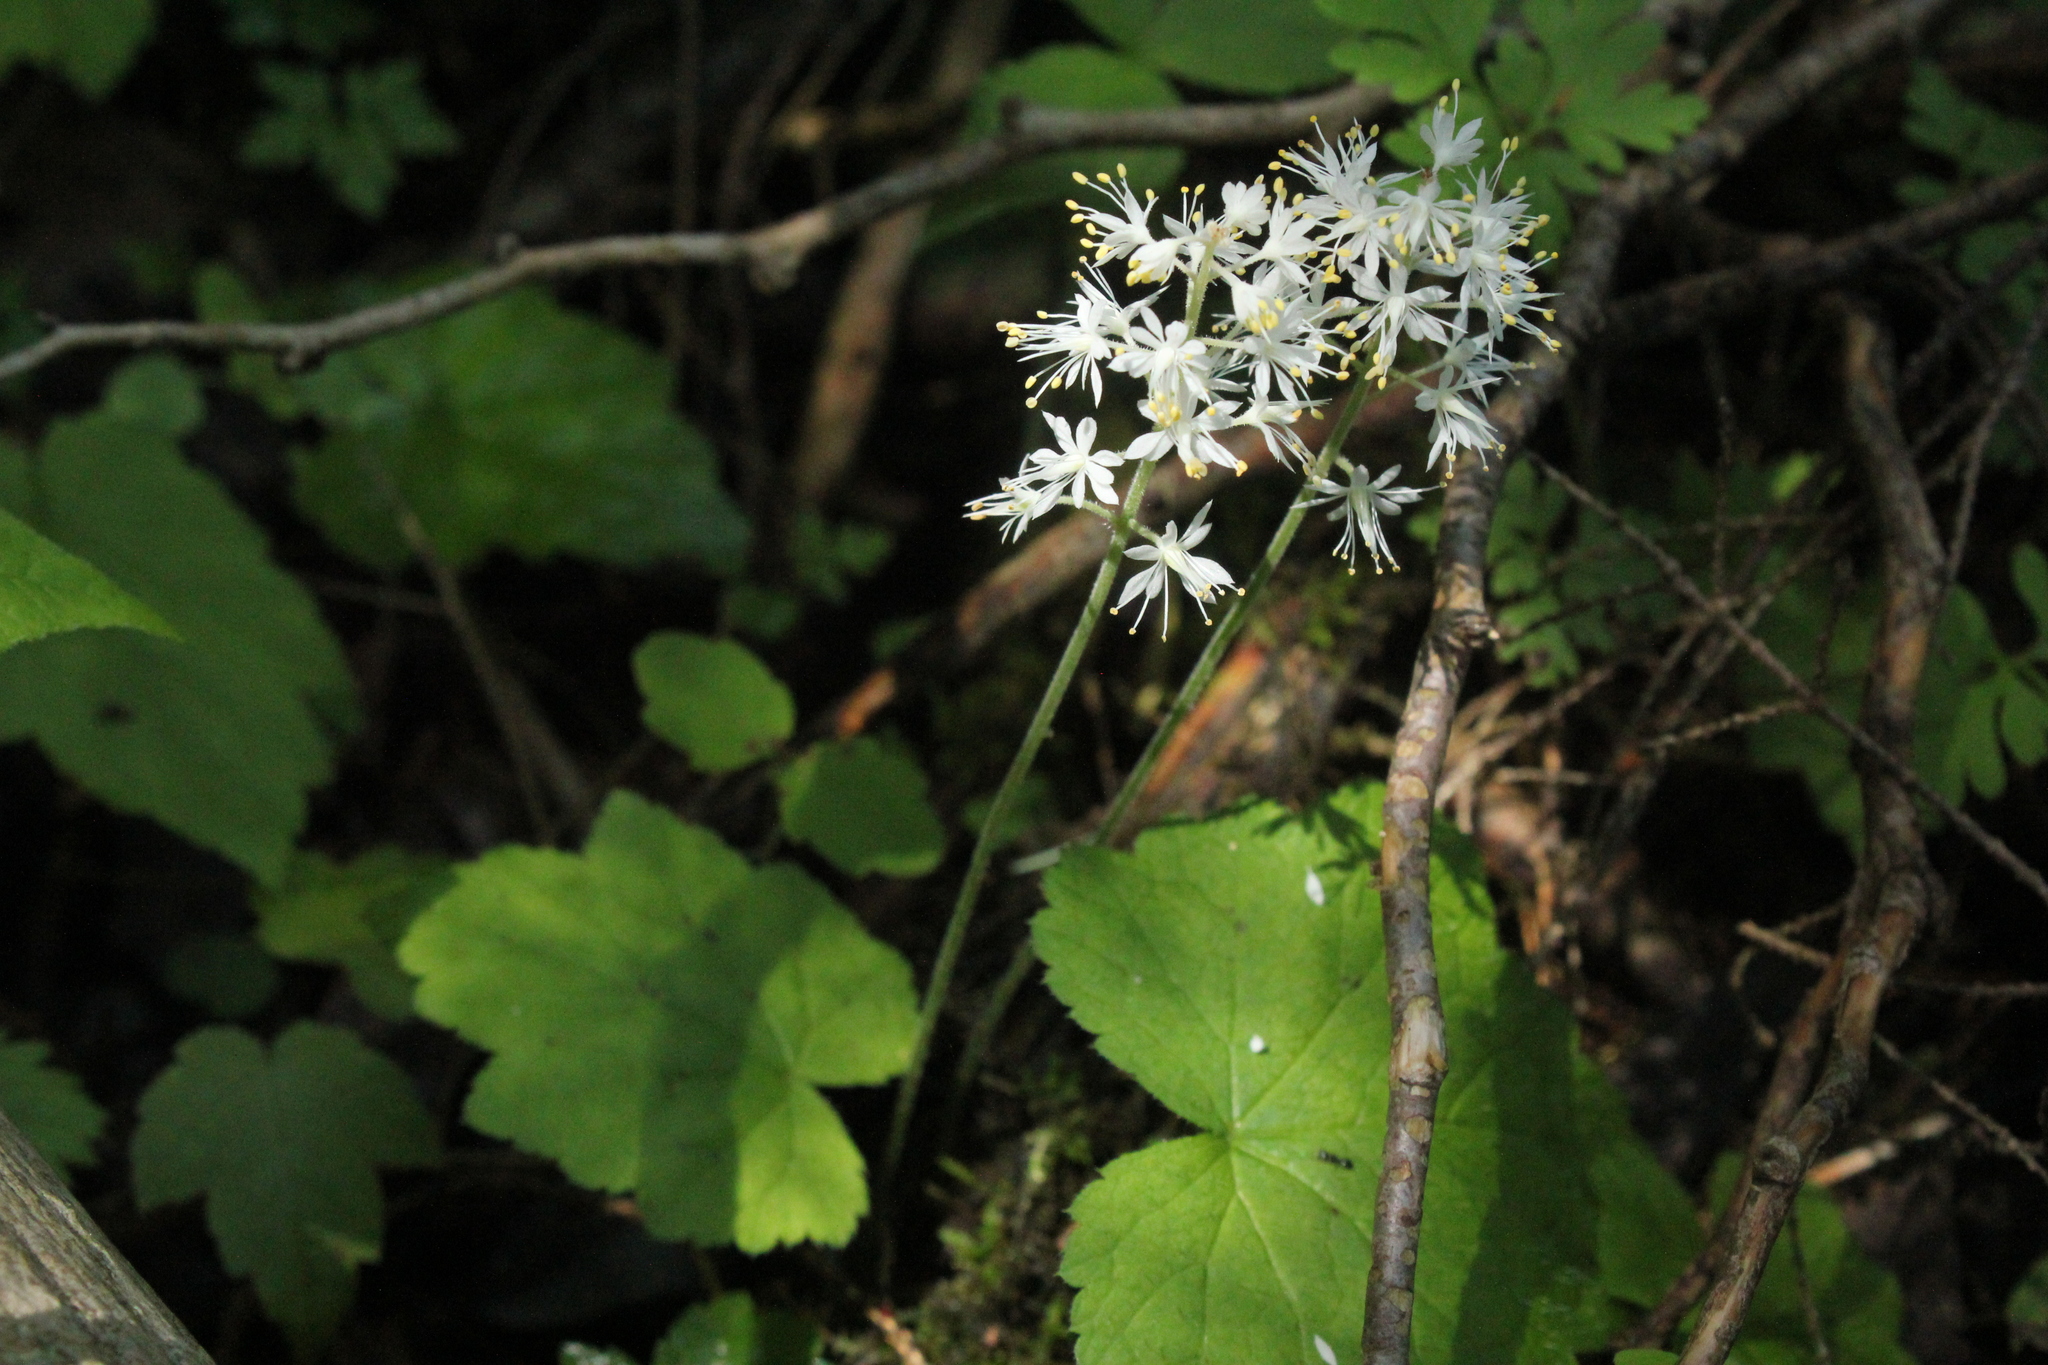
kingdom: Plantae
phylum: Tracheophyta
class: Magnoliopsida
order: Saxifragales
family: Saxifragaceae
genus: Tiarella
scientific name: Tiarella stolonifera
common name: Stoloniferous foamflower
